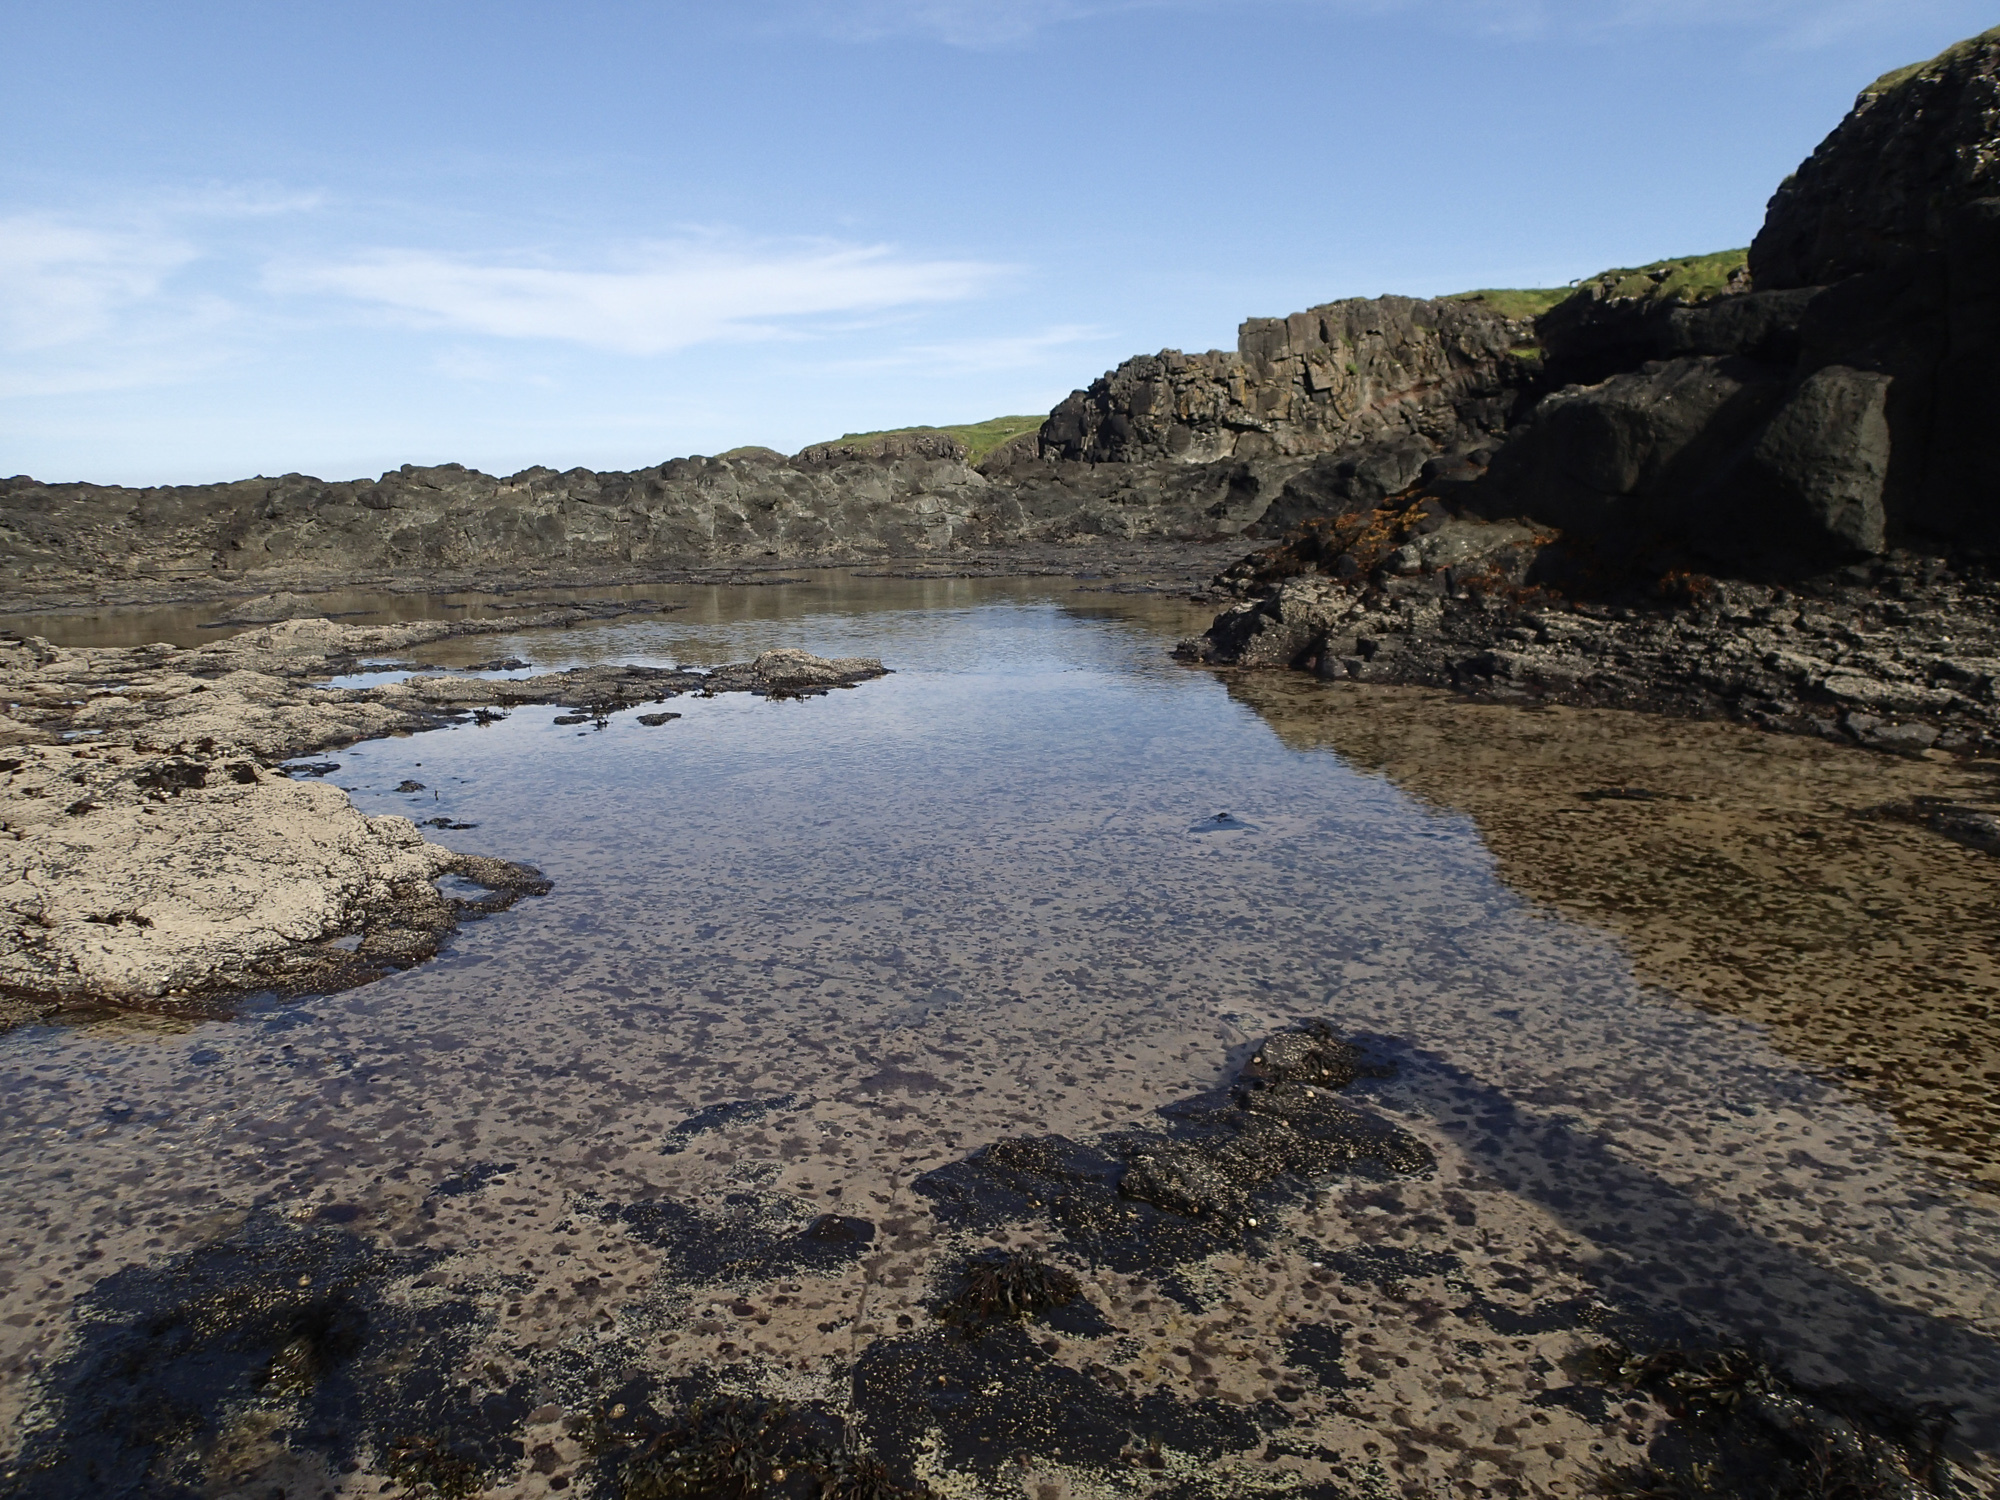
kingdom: Animalia
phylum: Echinodermata
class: Echinoidea
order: Camarodonta
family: Parechinidae
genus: Paracentrotus
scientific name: Paracentrotus lividus
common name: Purple sea urchin
